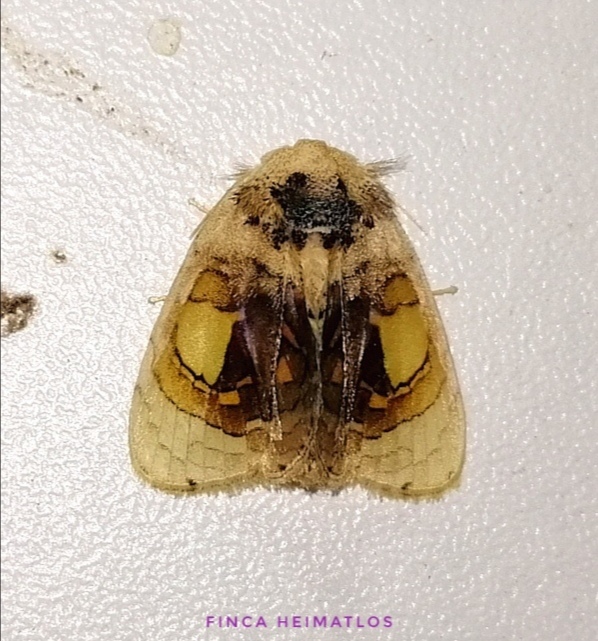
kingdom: Animalia
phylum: Arthropoda
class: Insecta
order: Lepidoptera
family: Psychidae
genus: Arrhenophanes
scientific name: Arrhenophanes volcanica
